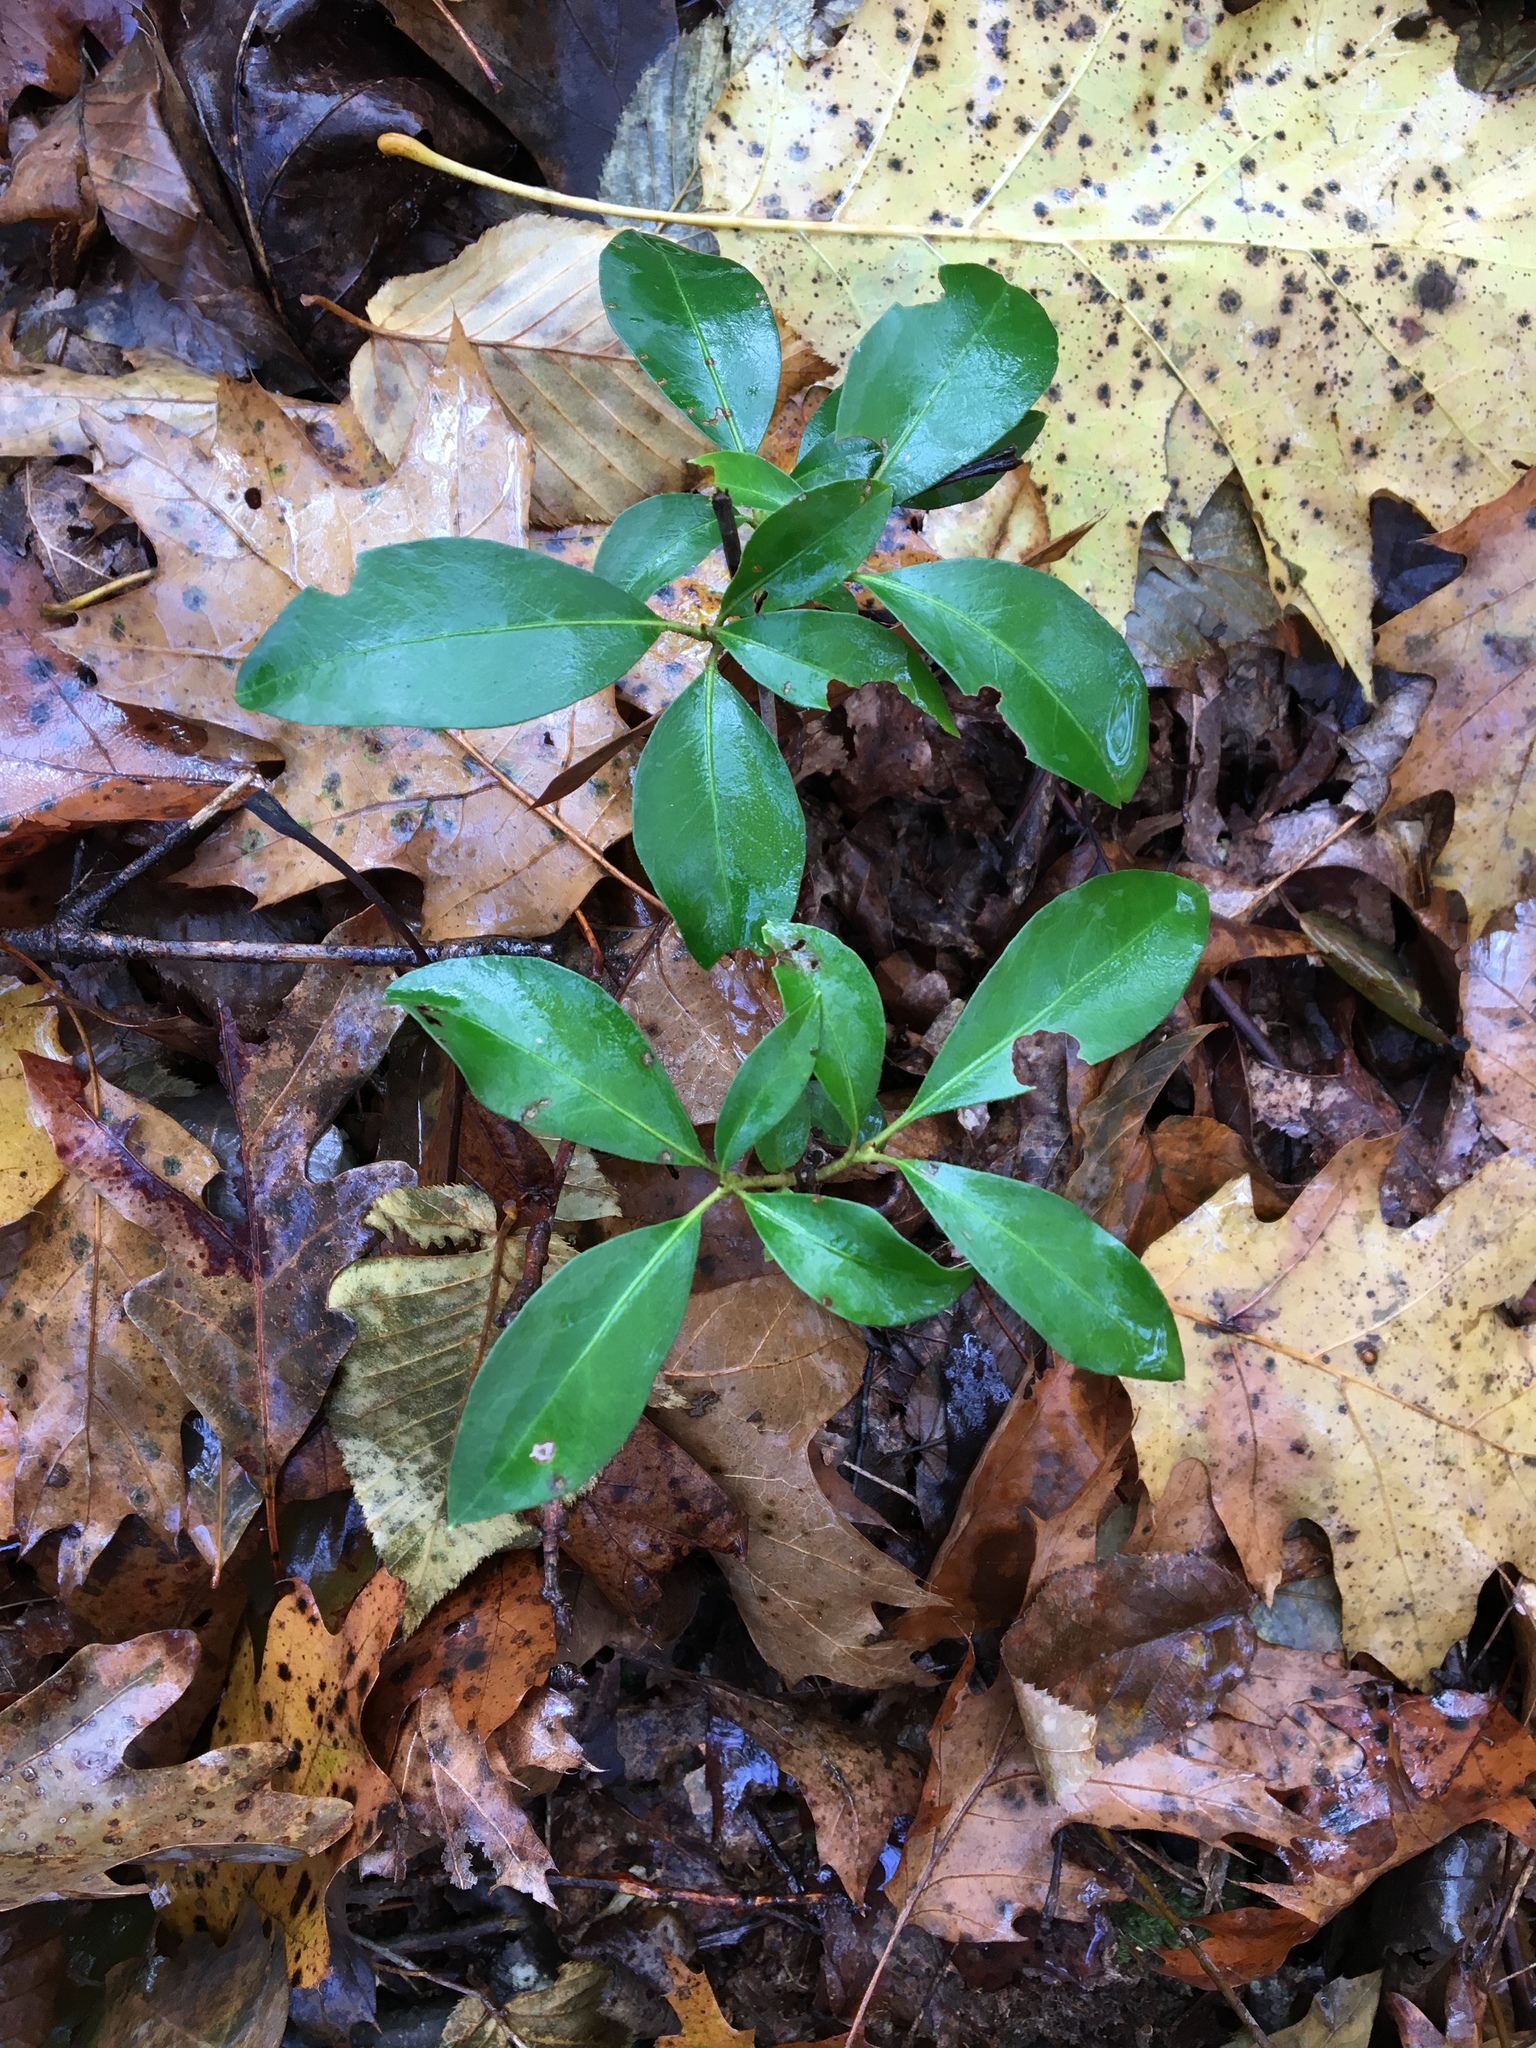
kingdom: Plantae
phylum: Tracheophyta
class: Magnoliopsida
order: Ericales
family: Ericaceae
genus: Kalmia
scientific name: Kalmia latifolia
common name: Mountain-laurel
